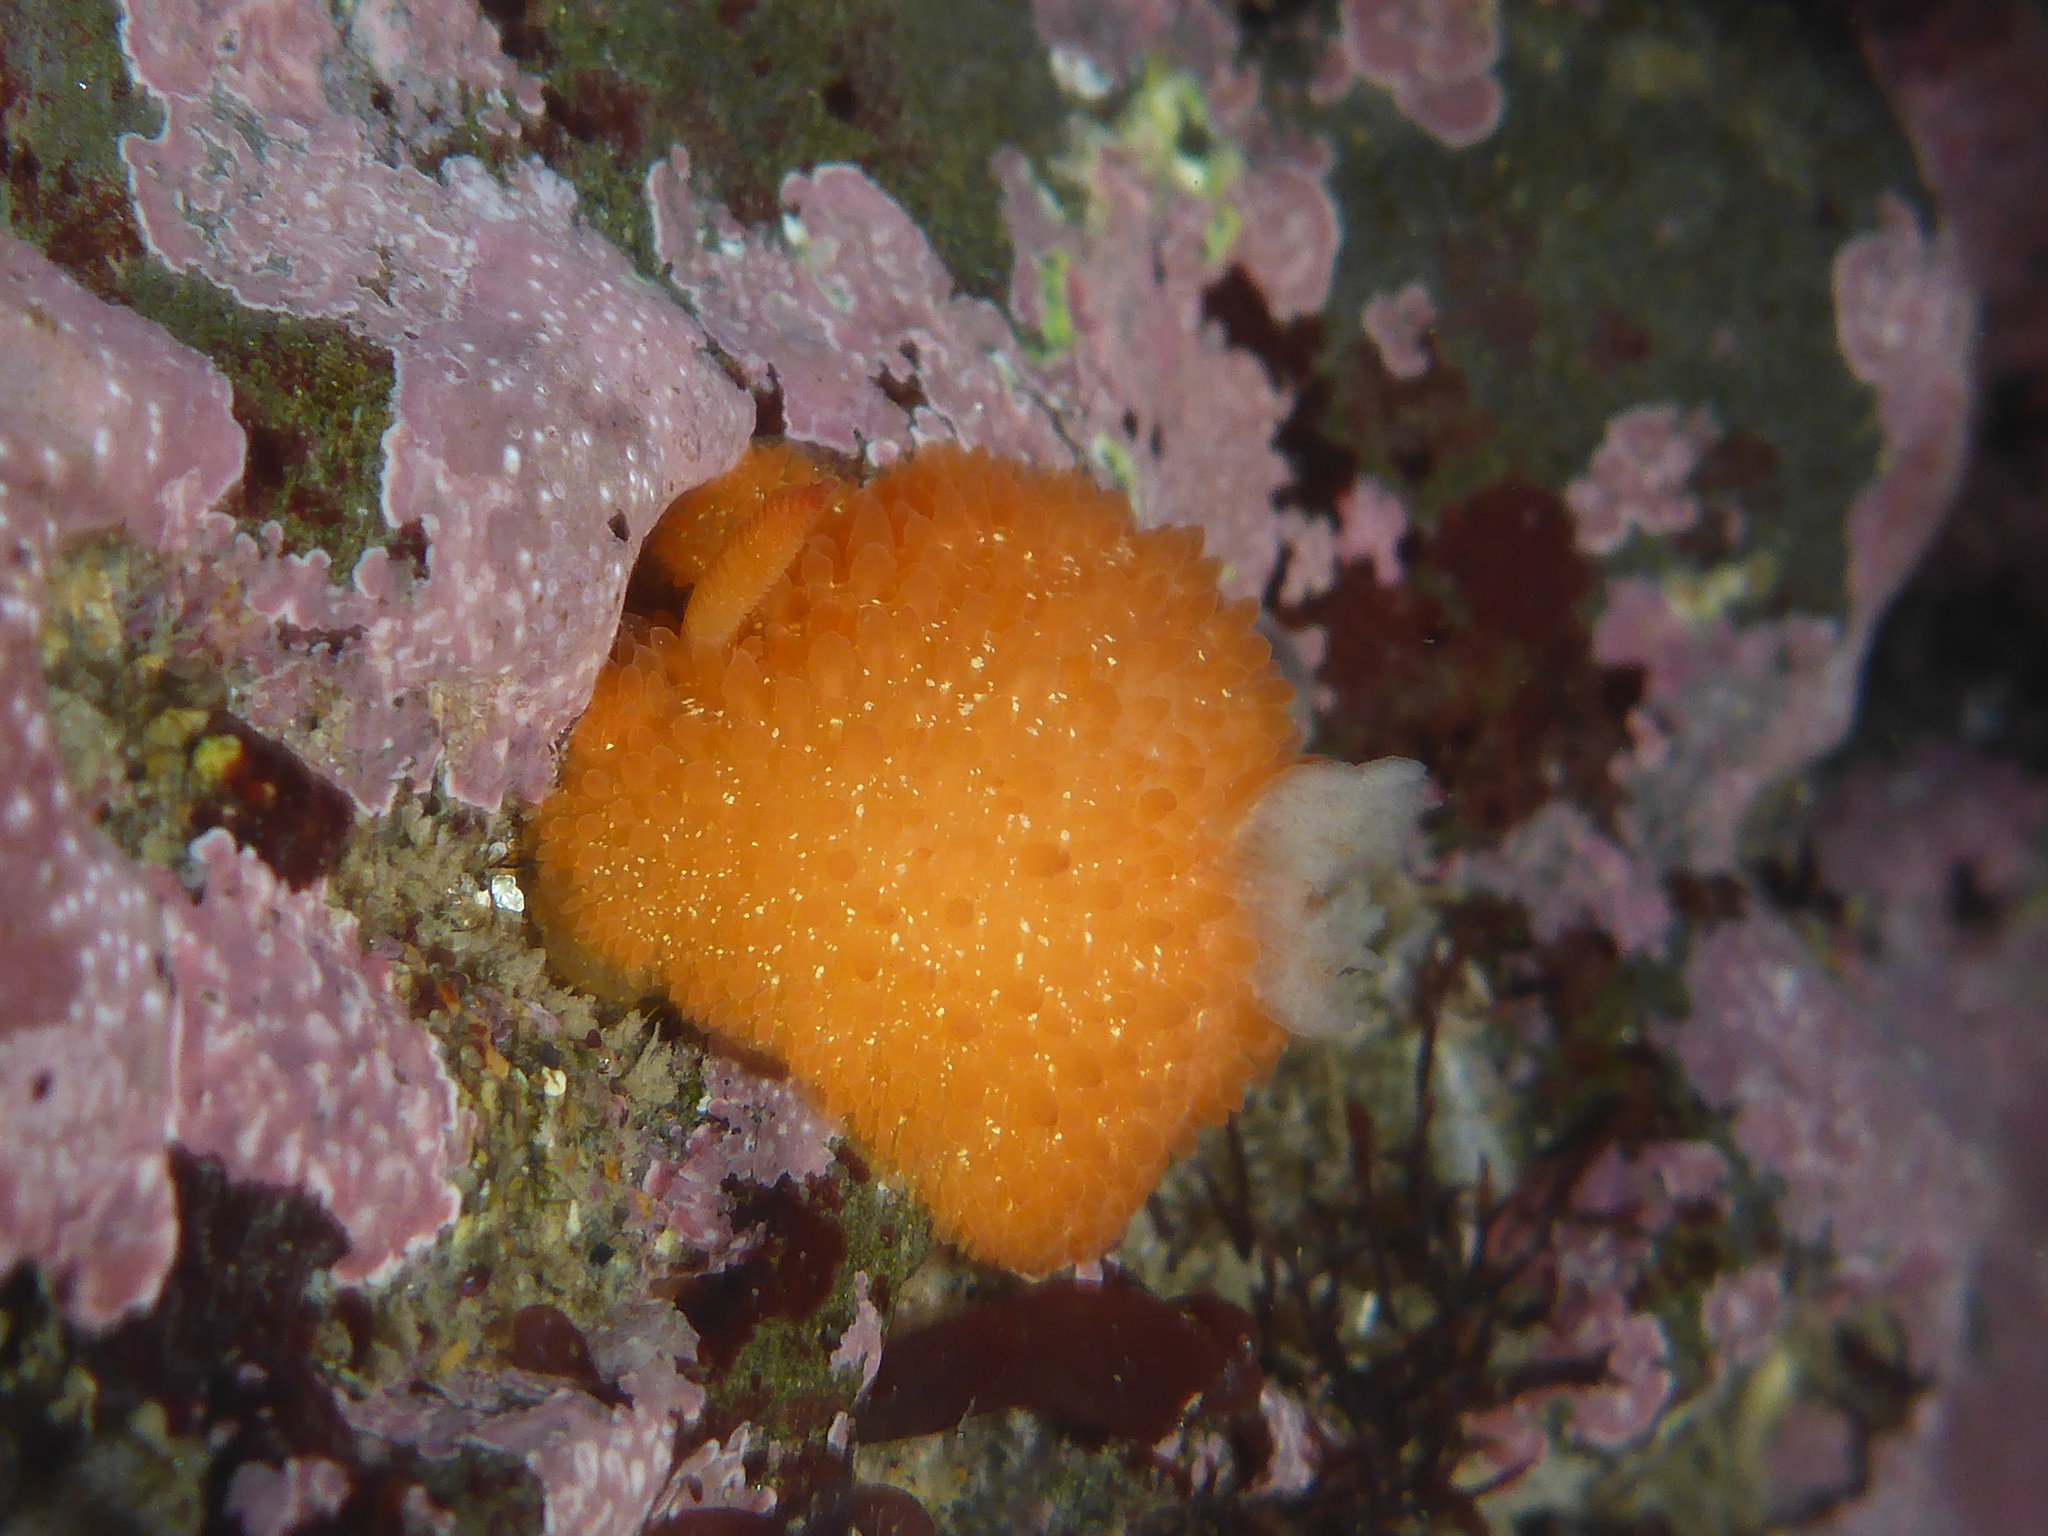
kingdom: Animalia
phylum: Mollusca
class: Gastropoda
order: Nudibranchia
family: Onchidorididae
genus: Acanthodoris
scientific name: Acanthodoris lutea
